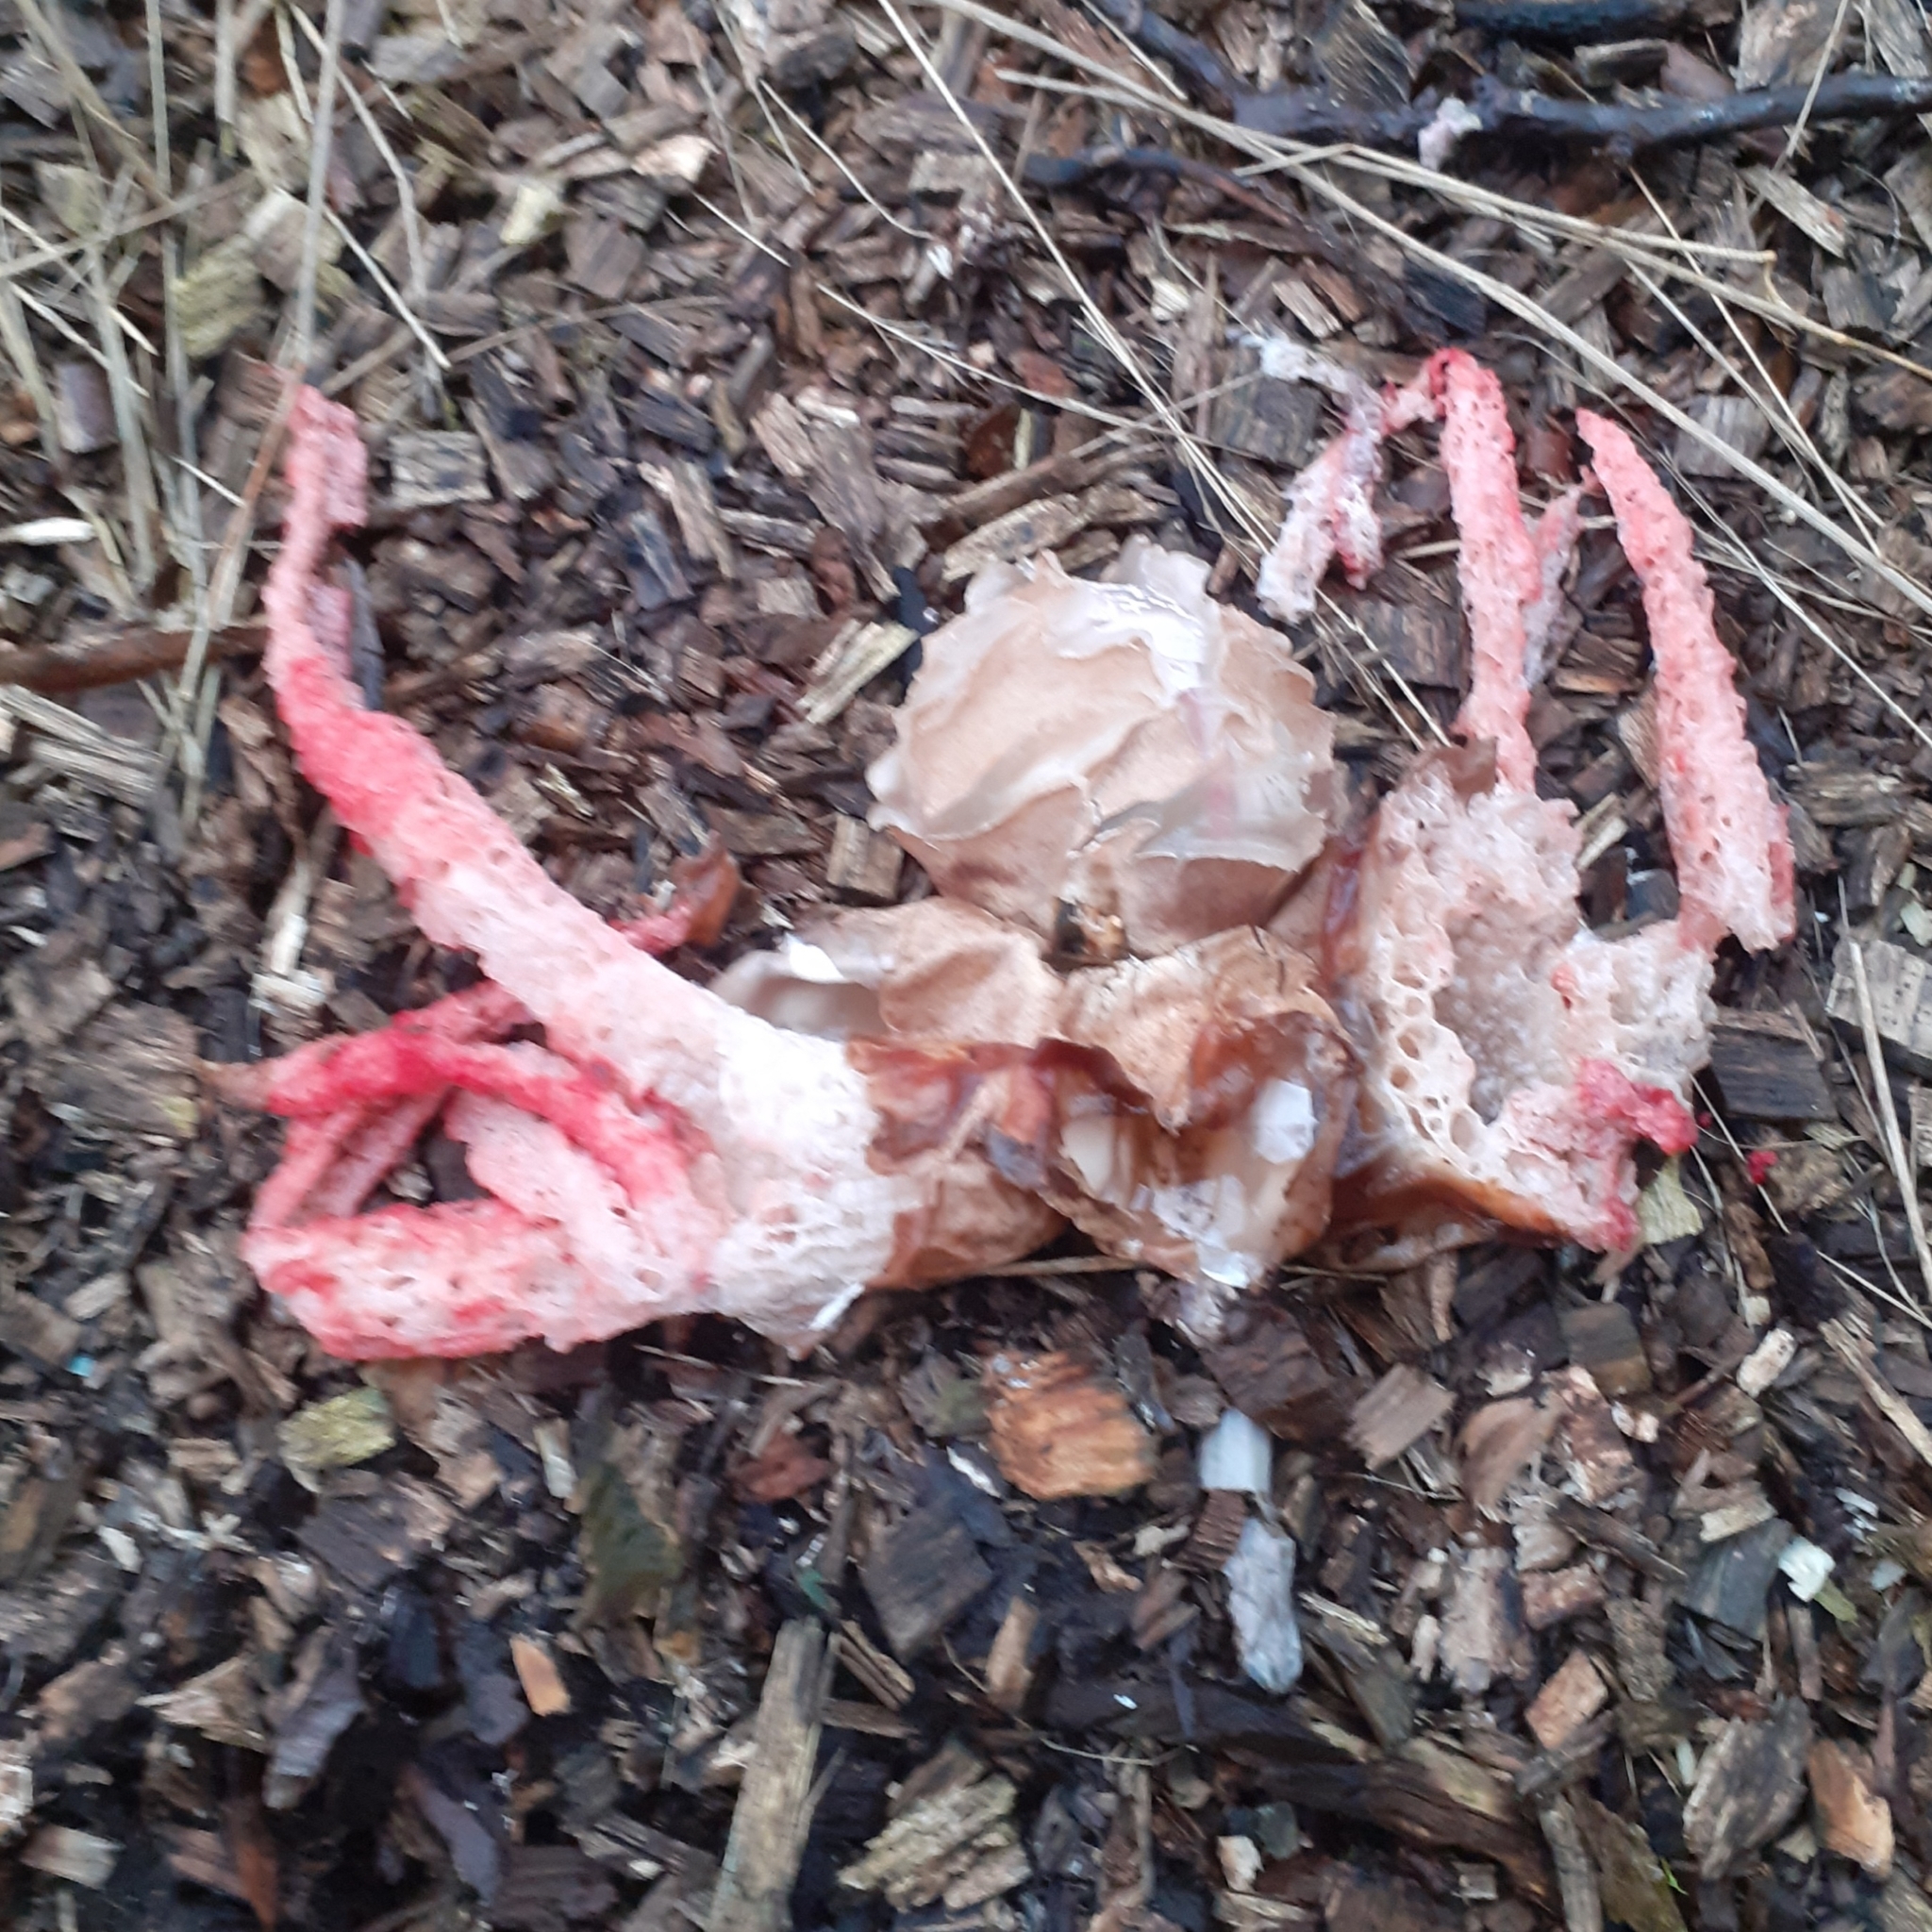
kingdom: Fungi
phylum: Basidiomycota
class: Agaricomycetes
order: Phallales
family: Phallaceae
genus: Clathrus
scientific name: Clathrus archeri
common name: Devil's fingers
